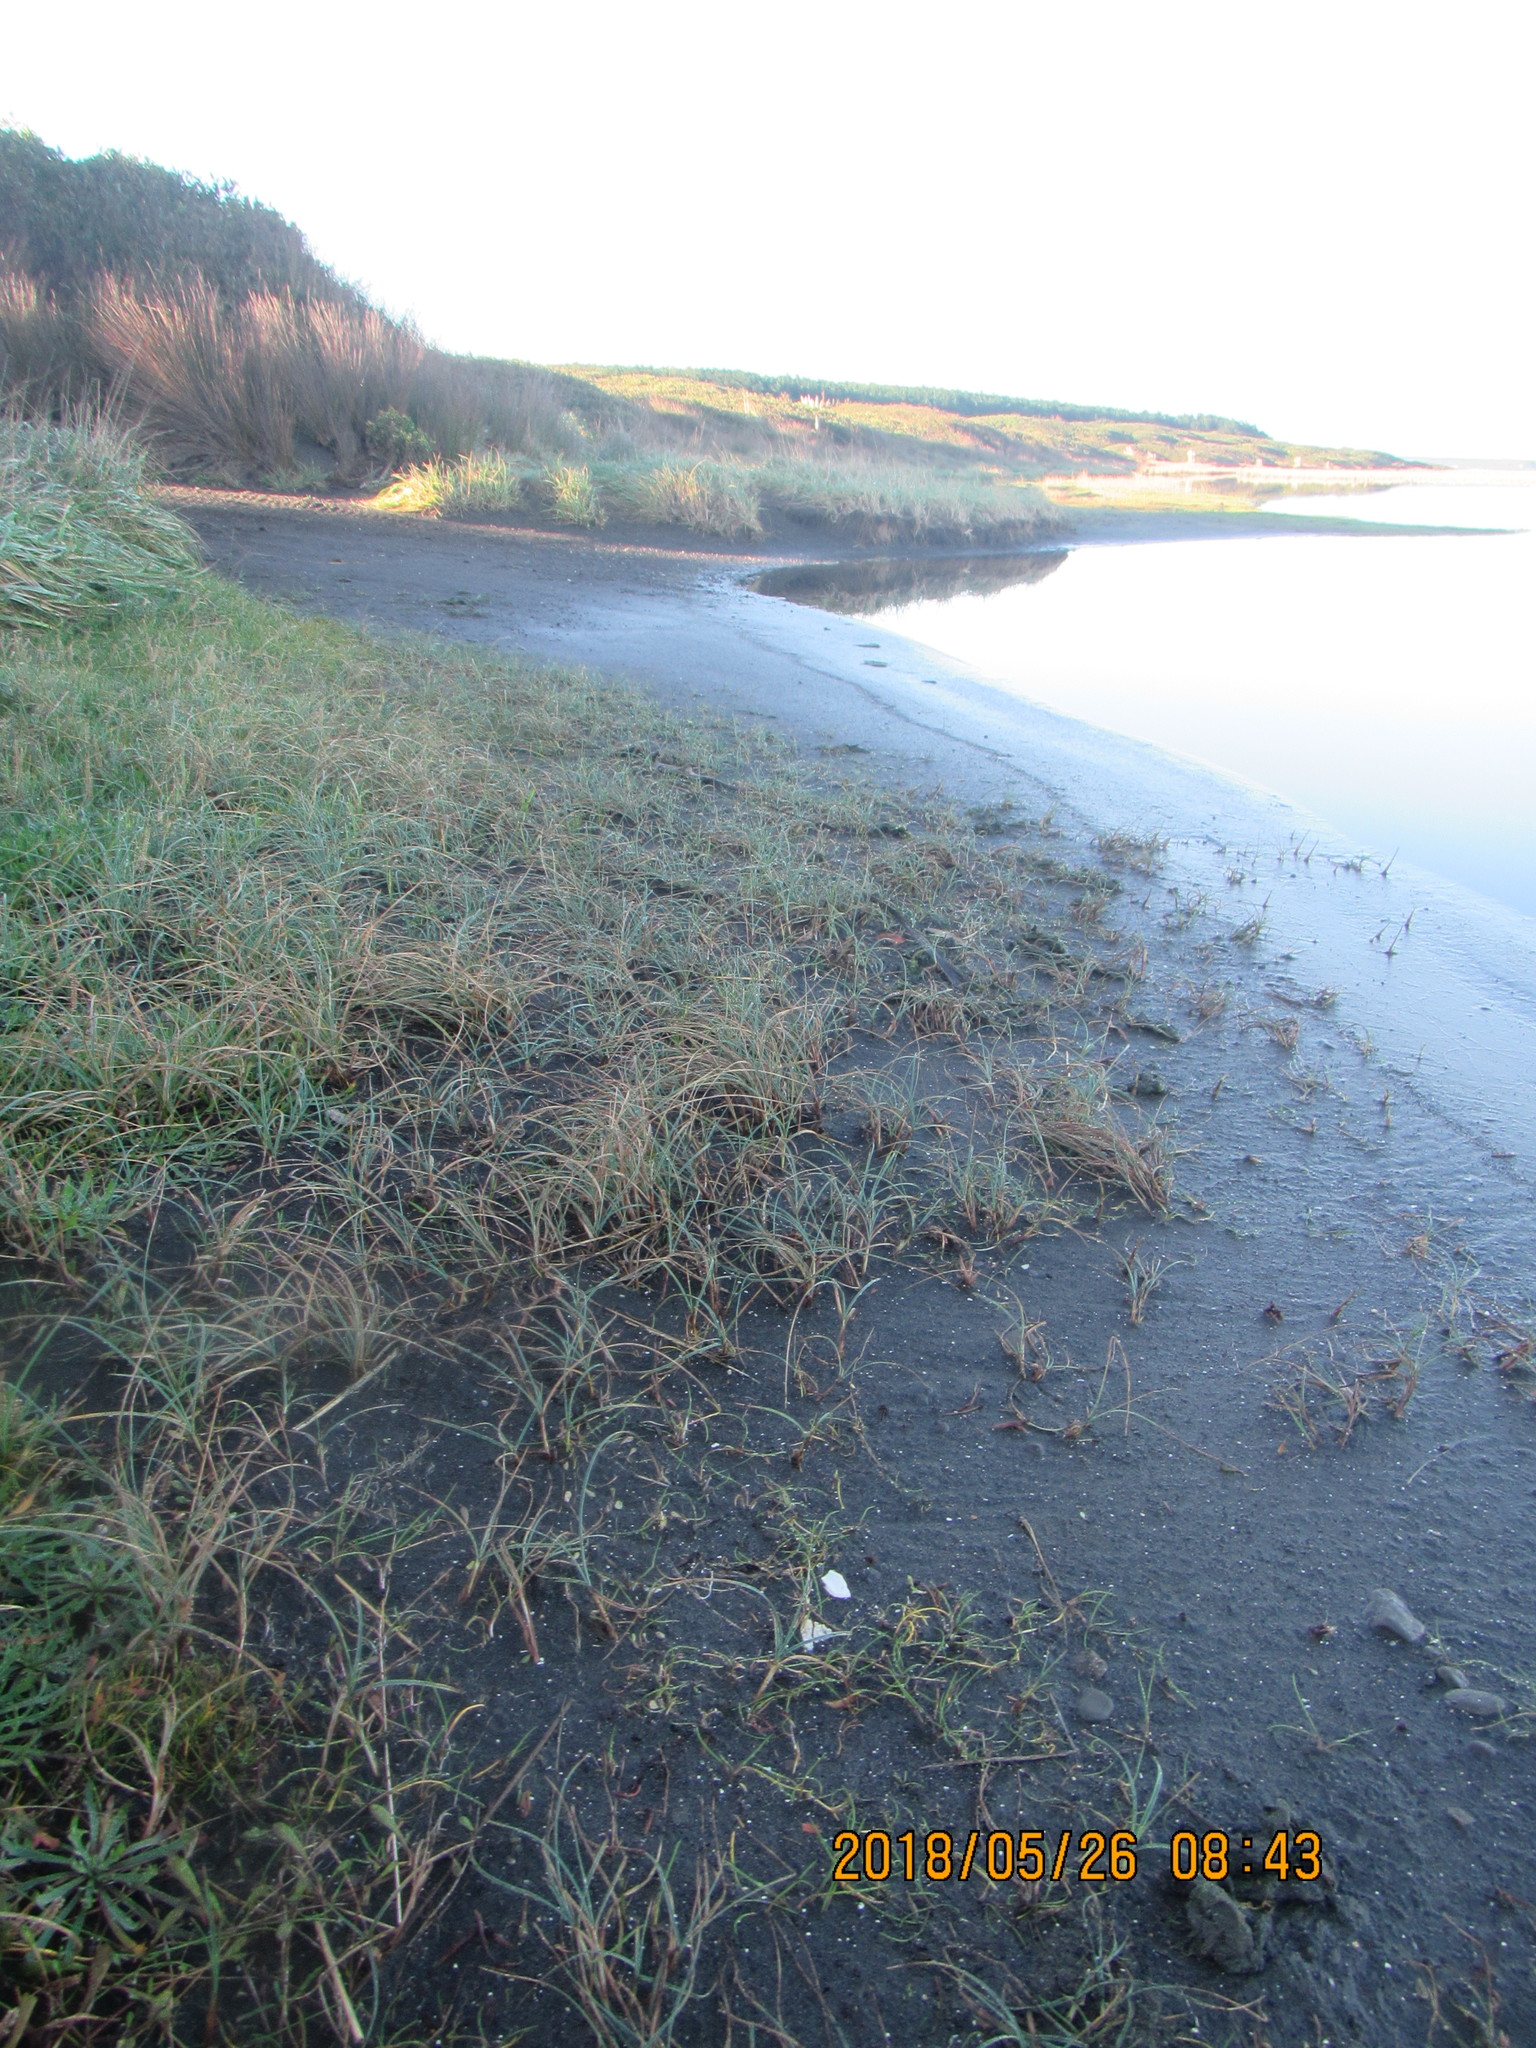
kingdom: Plantae
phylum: Tracheophyta
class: Liliopsida
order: Poales
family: Cyperaceae
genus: Carex
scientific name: Carex pumila
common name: Dwarf sedge
